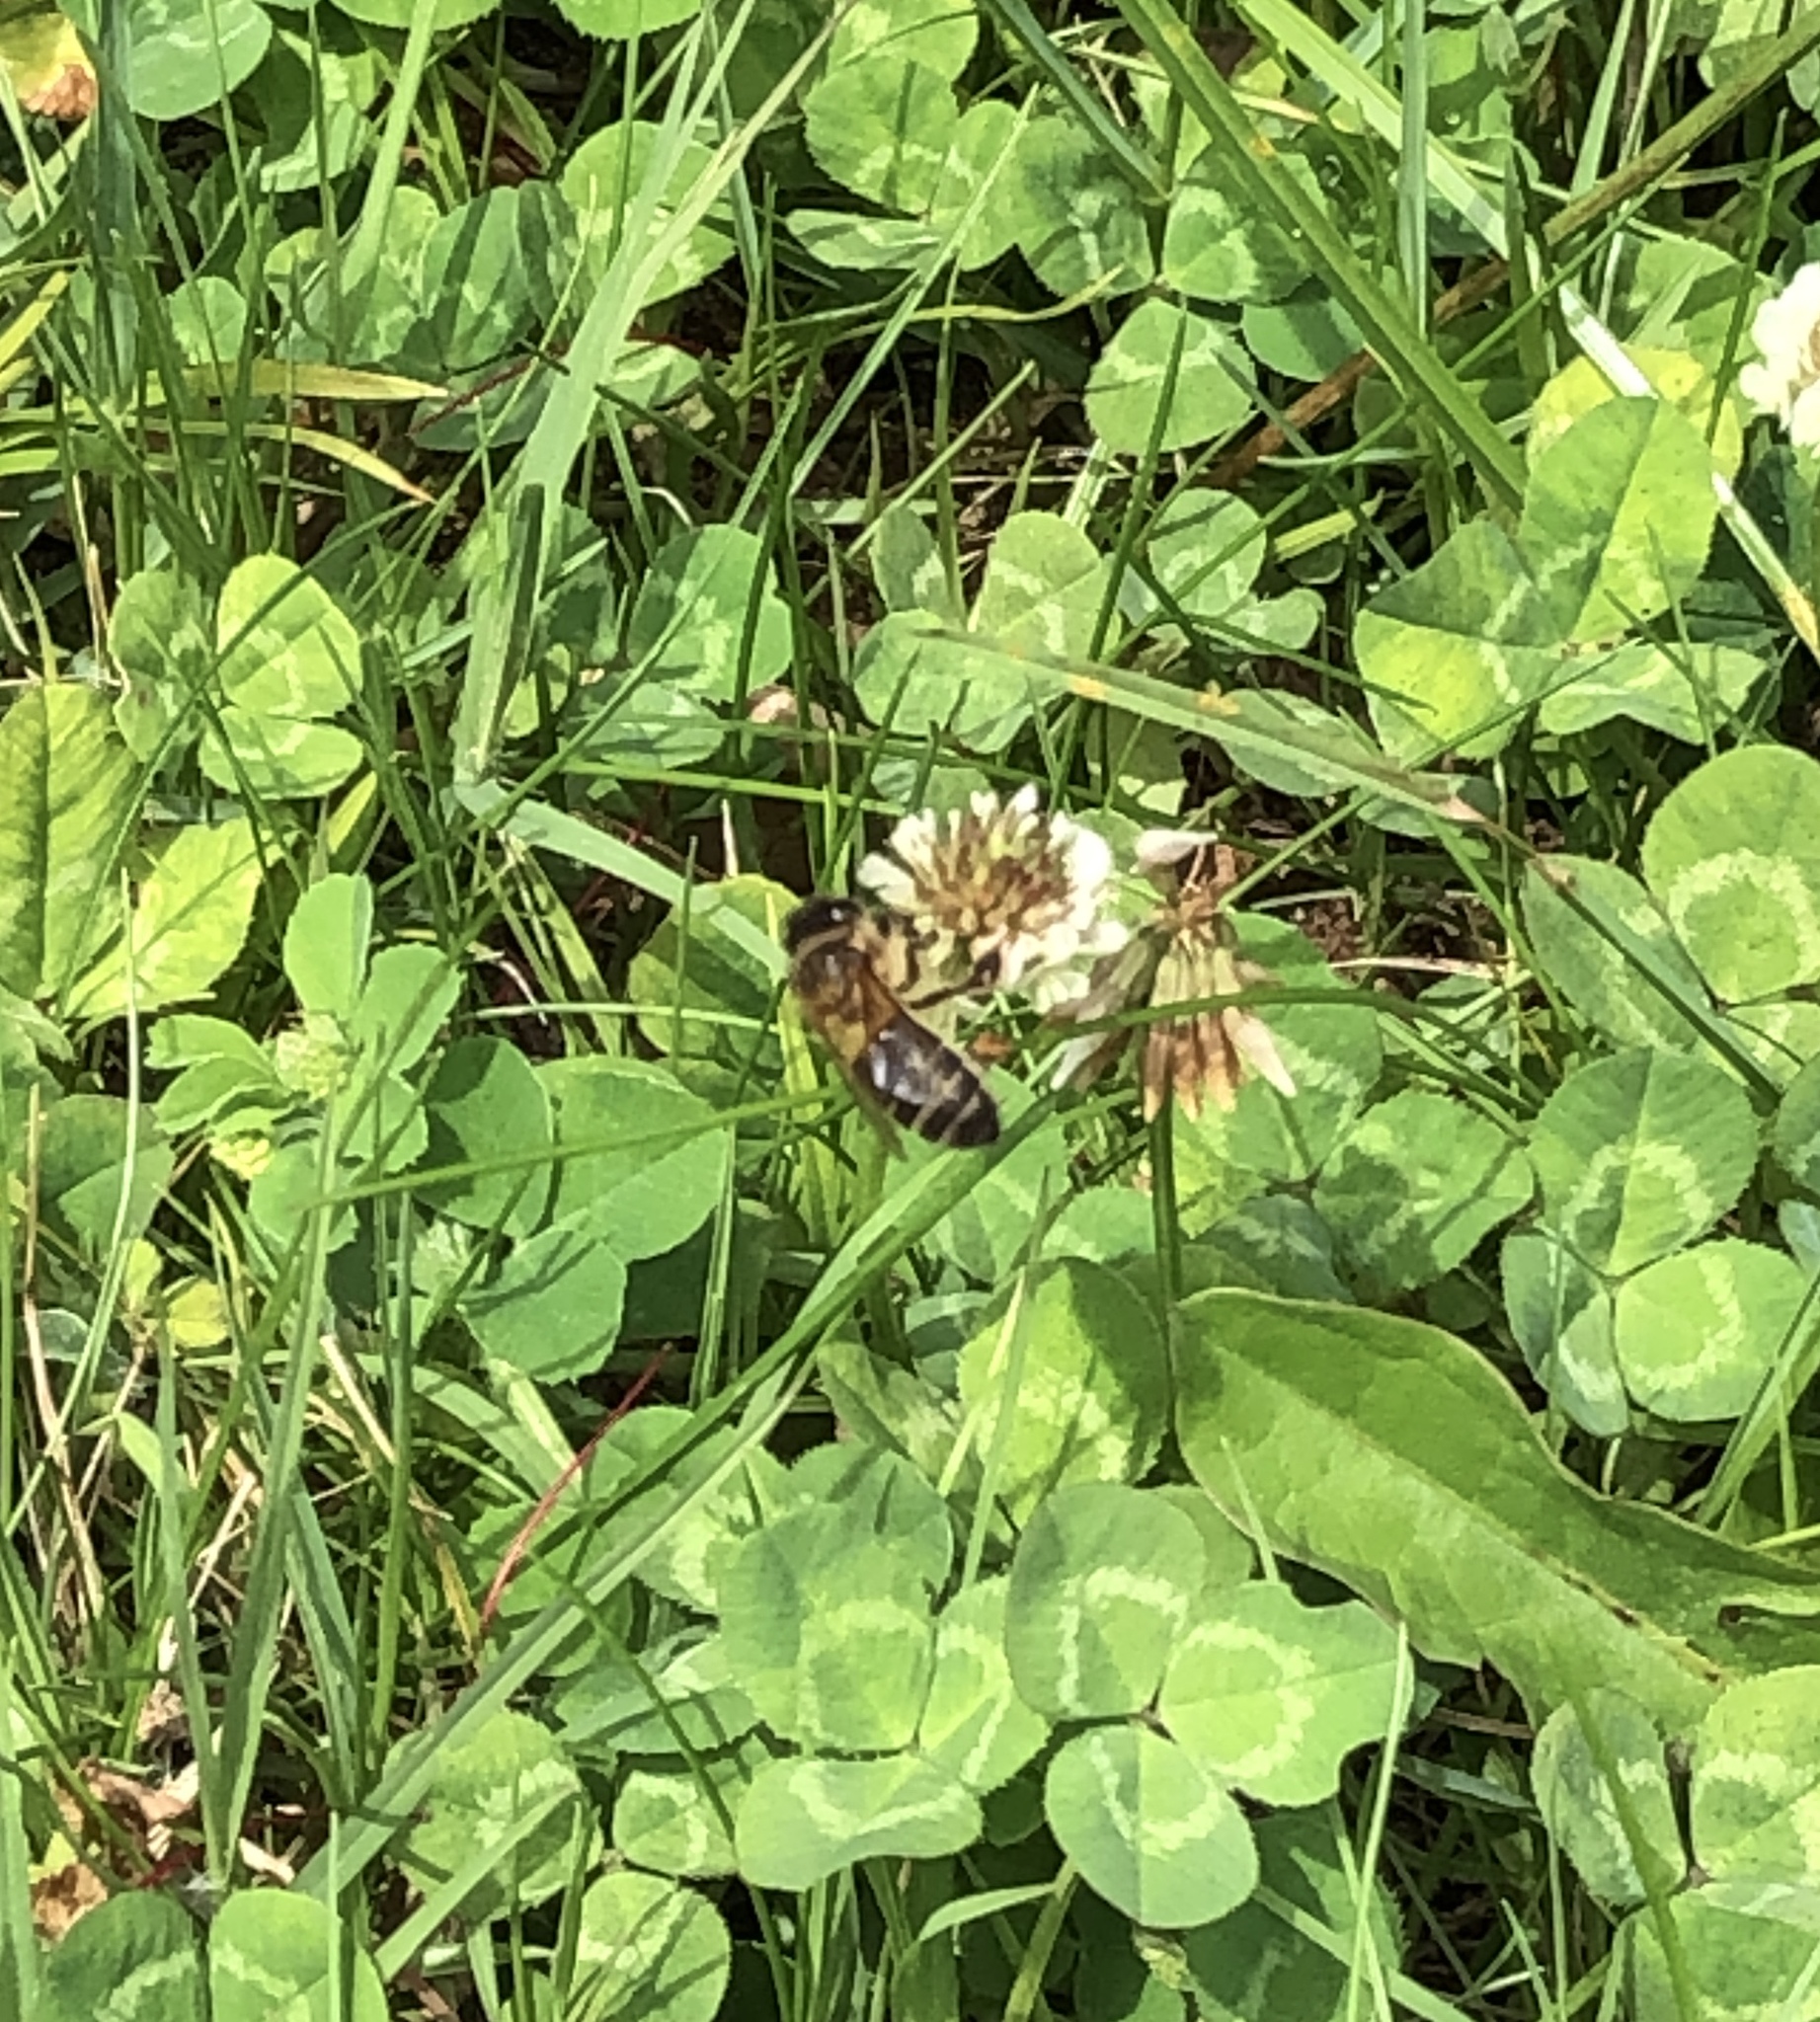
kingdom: Animalia
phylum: Arthropoda
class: Insecta
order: Hymenoptera
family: Apidae
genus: Apis
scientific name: Apis mellifera
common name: Honey bee
